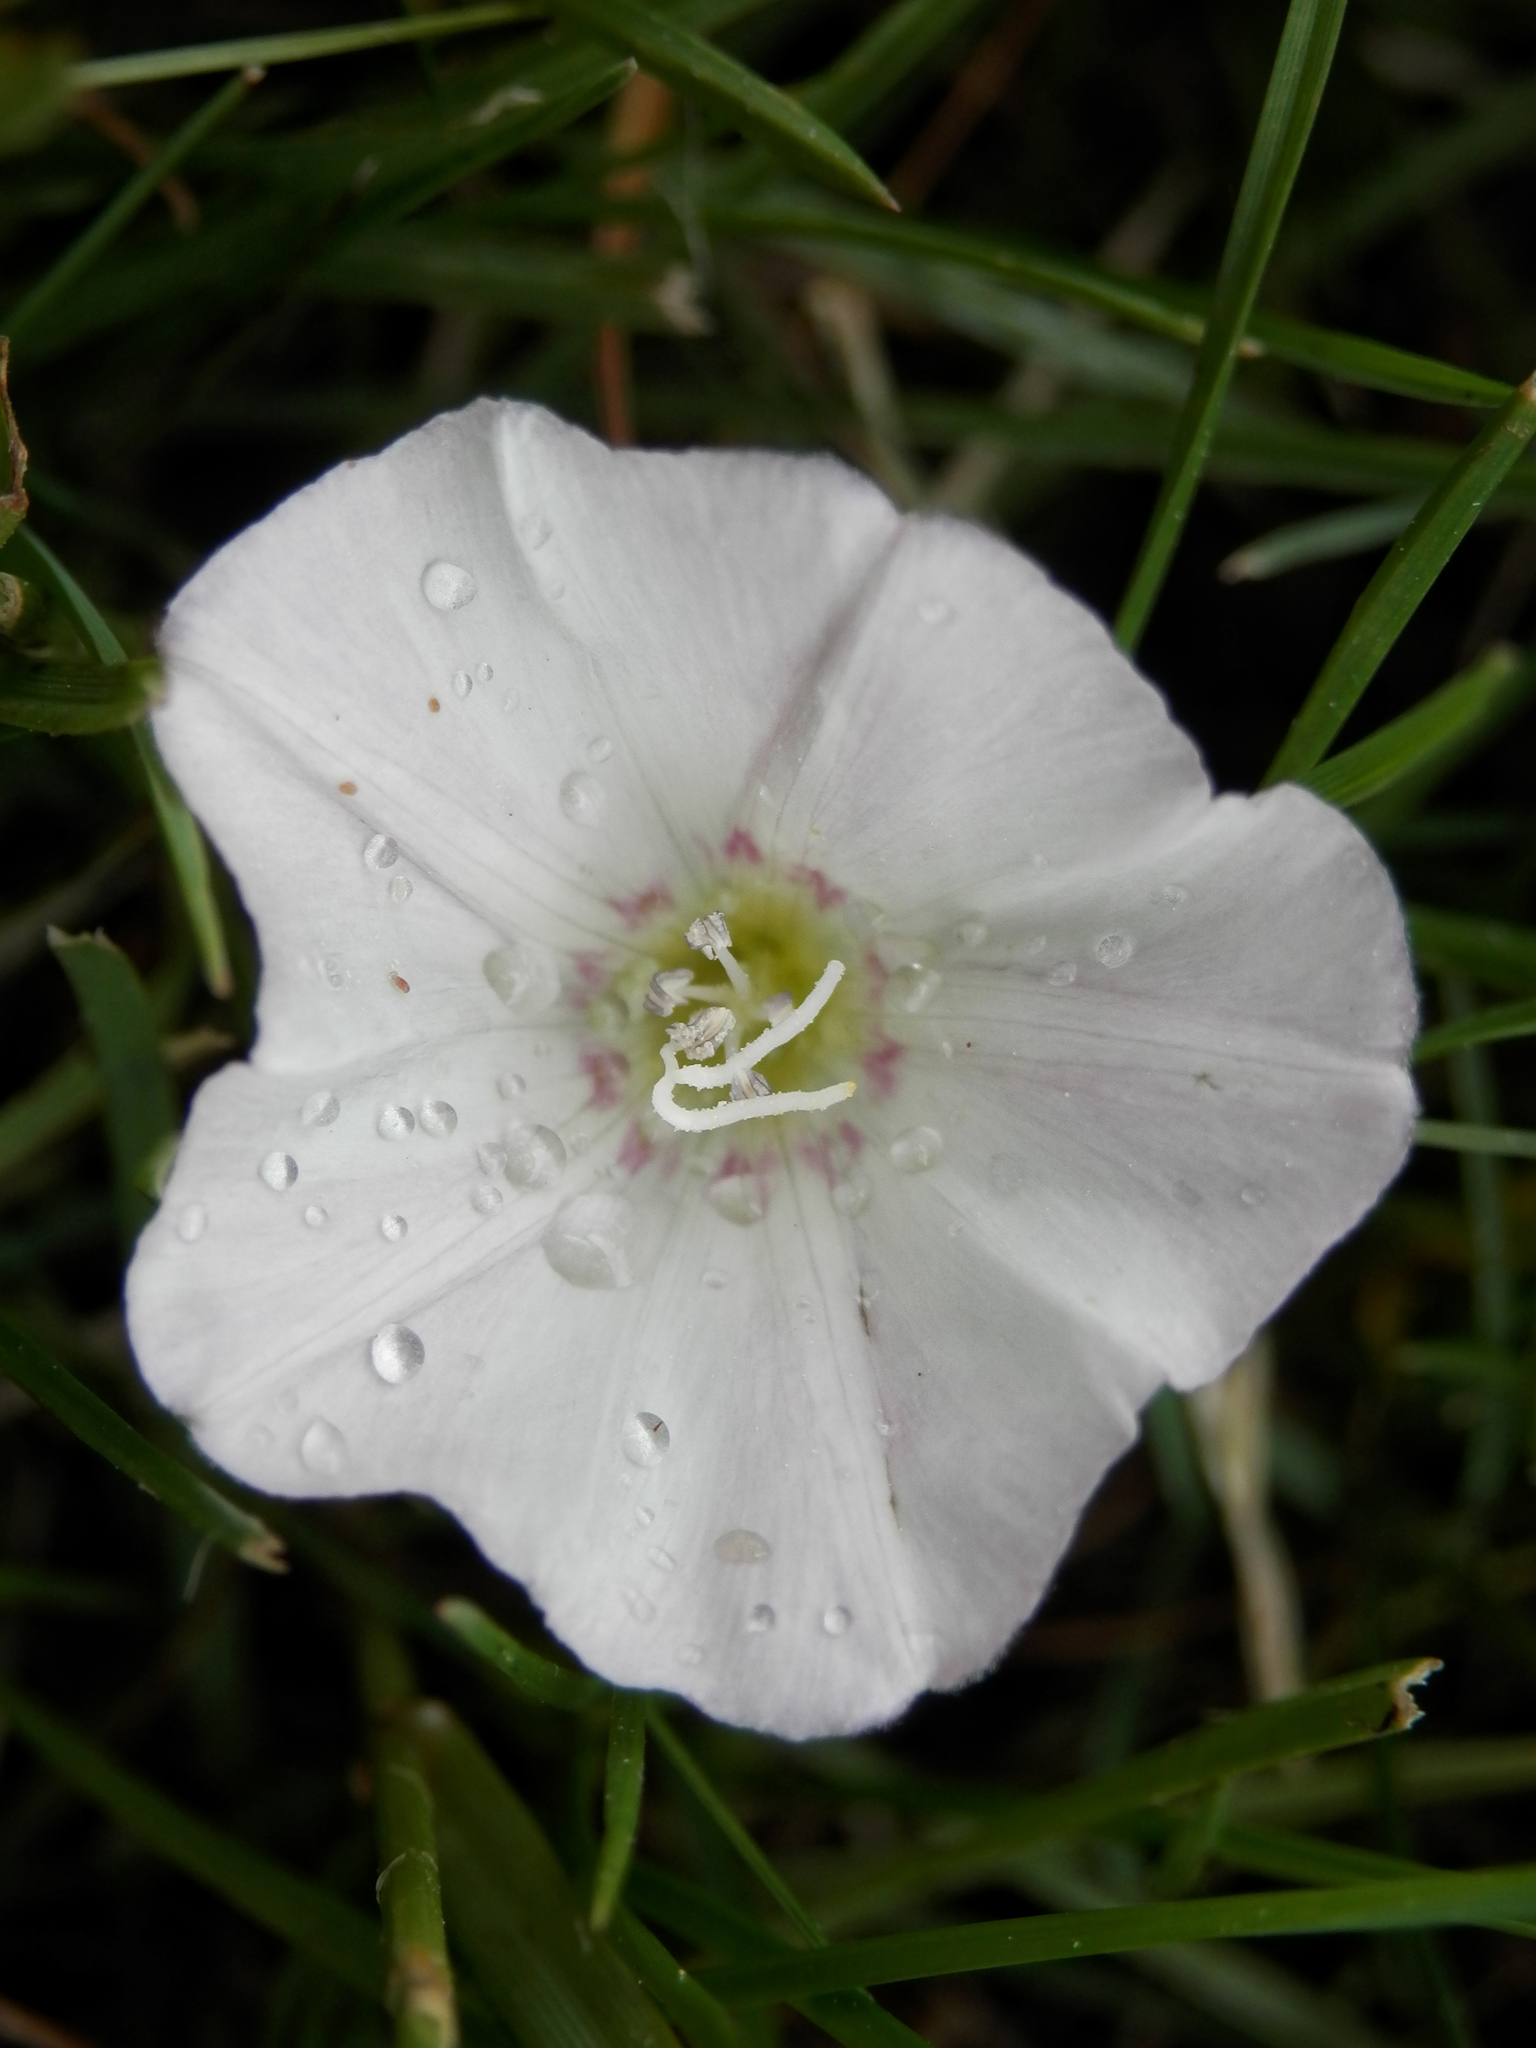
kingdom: Plantae
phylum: Tracheophyta
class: Magnoliopsida
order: Solanales
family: Convolvulaceae
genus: Convolvulus
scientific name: Convolvulus arvensis
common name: Field bindweed
